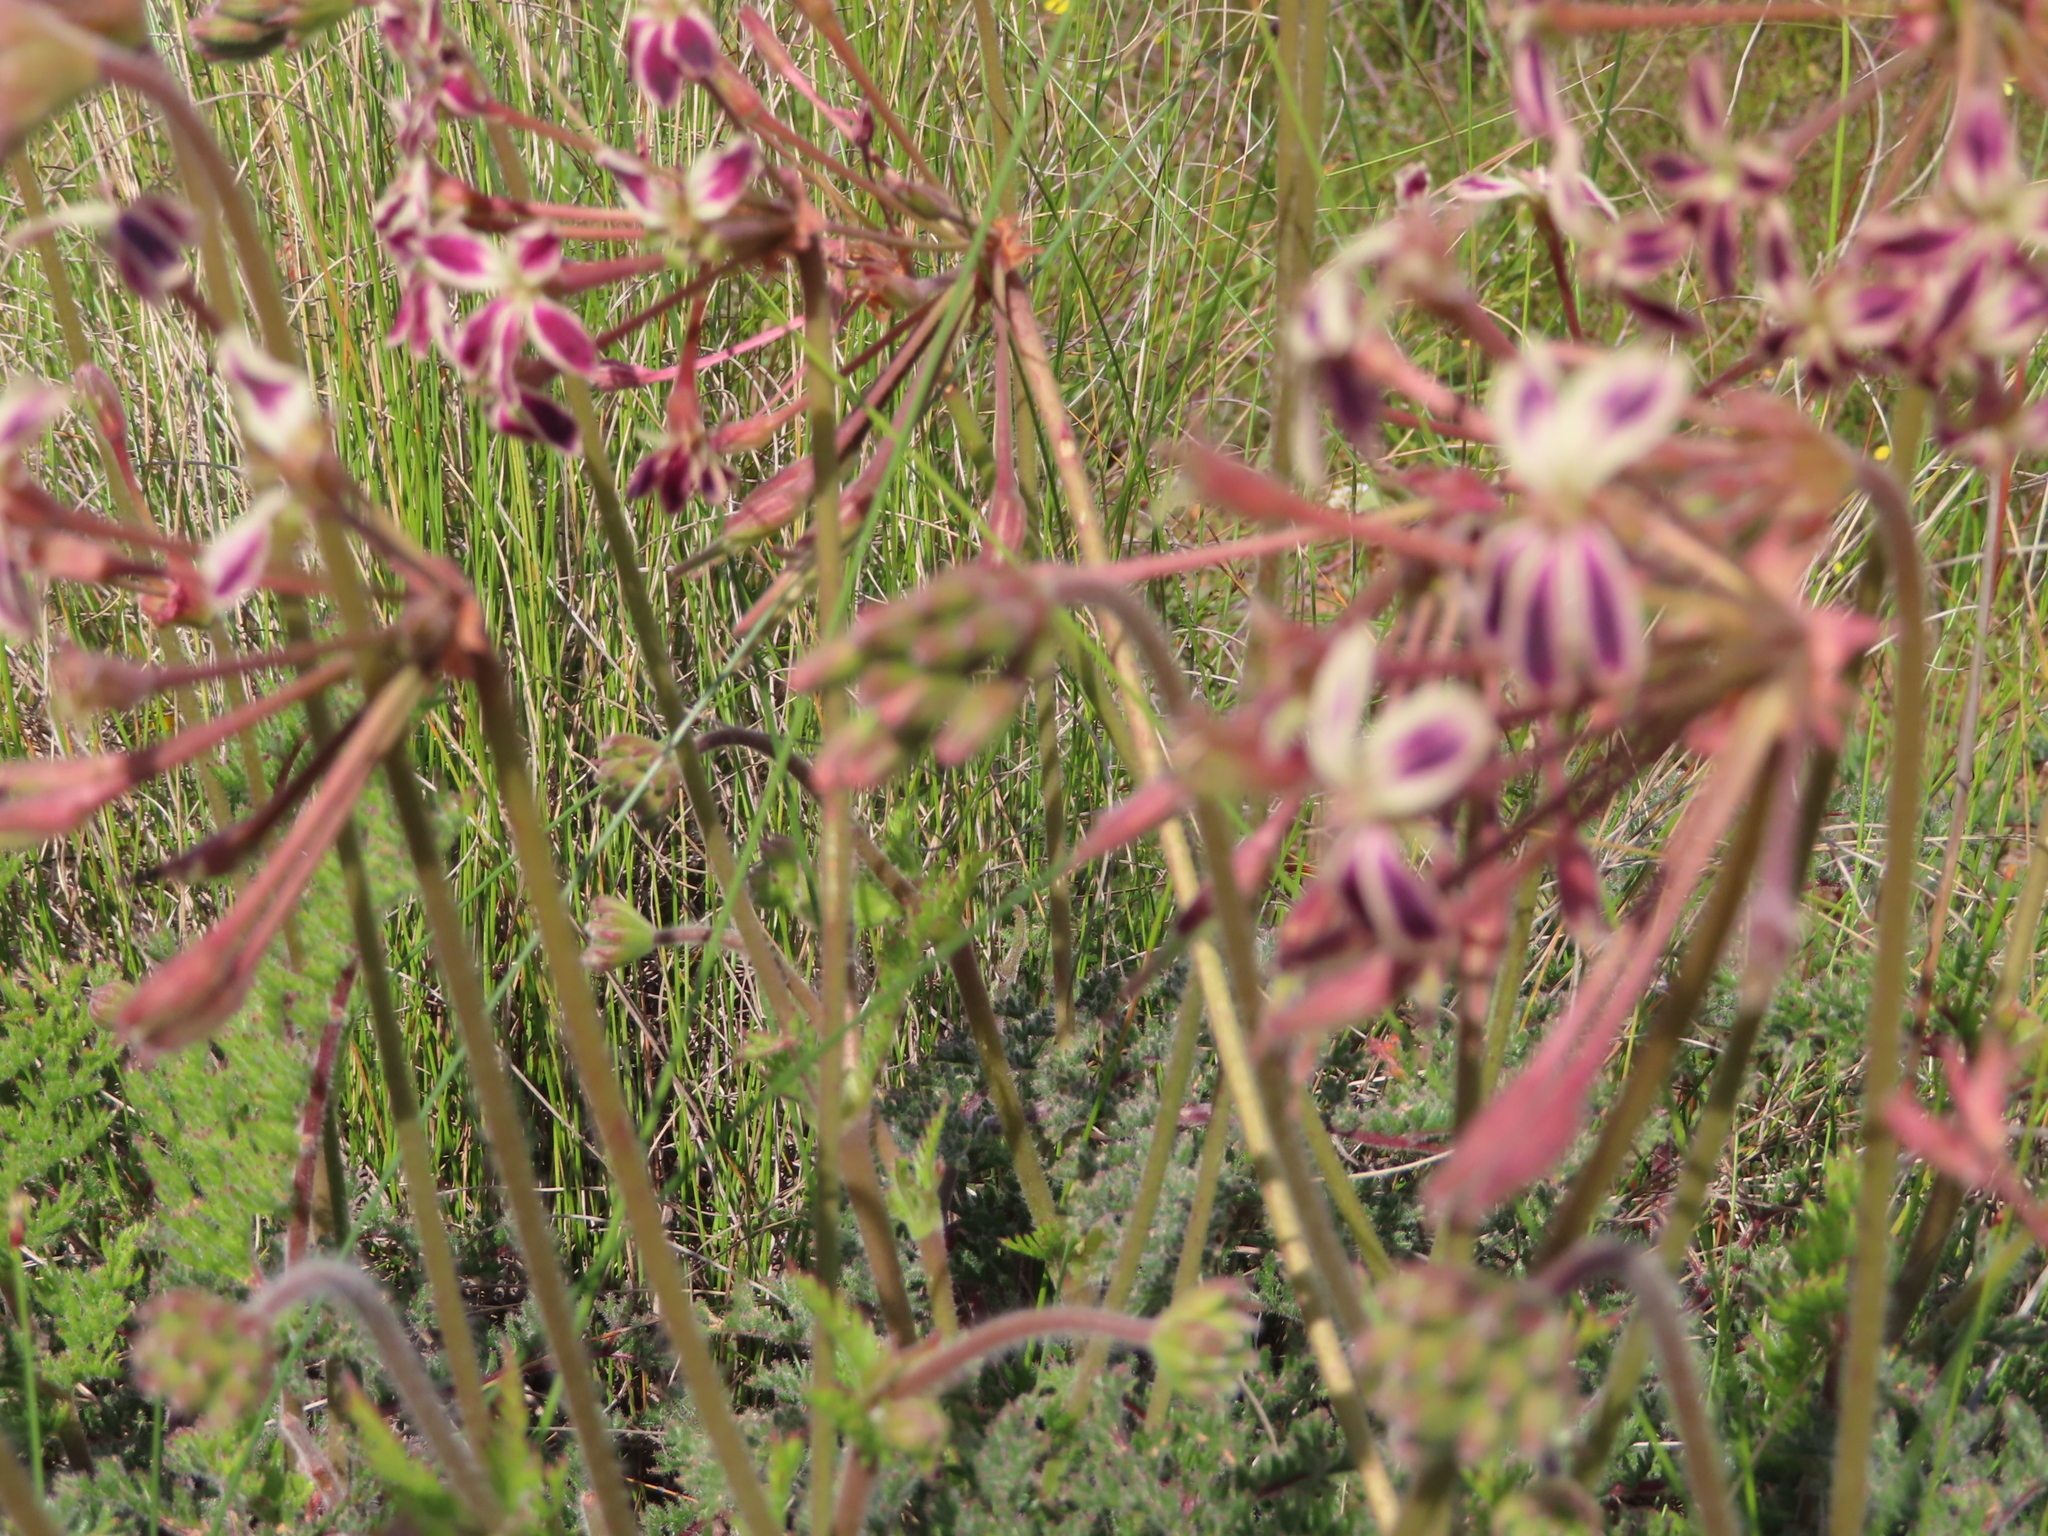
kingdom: Plantae
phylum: Tracheophyta
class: Magnoliopsida
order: Geraniales
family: Geraniaceae
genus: Pelargonium
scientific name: Pelargonium triste
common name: Night-scent pelargonium
